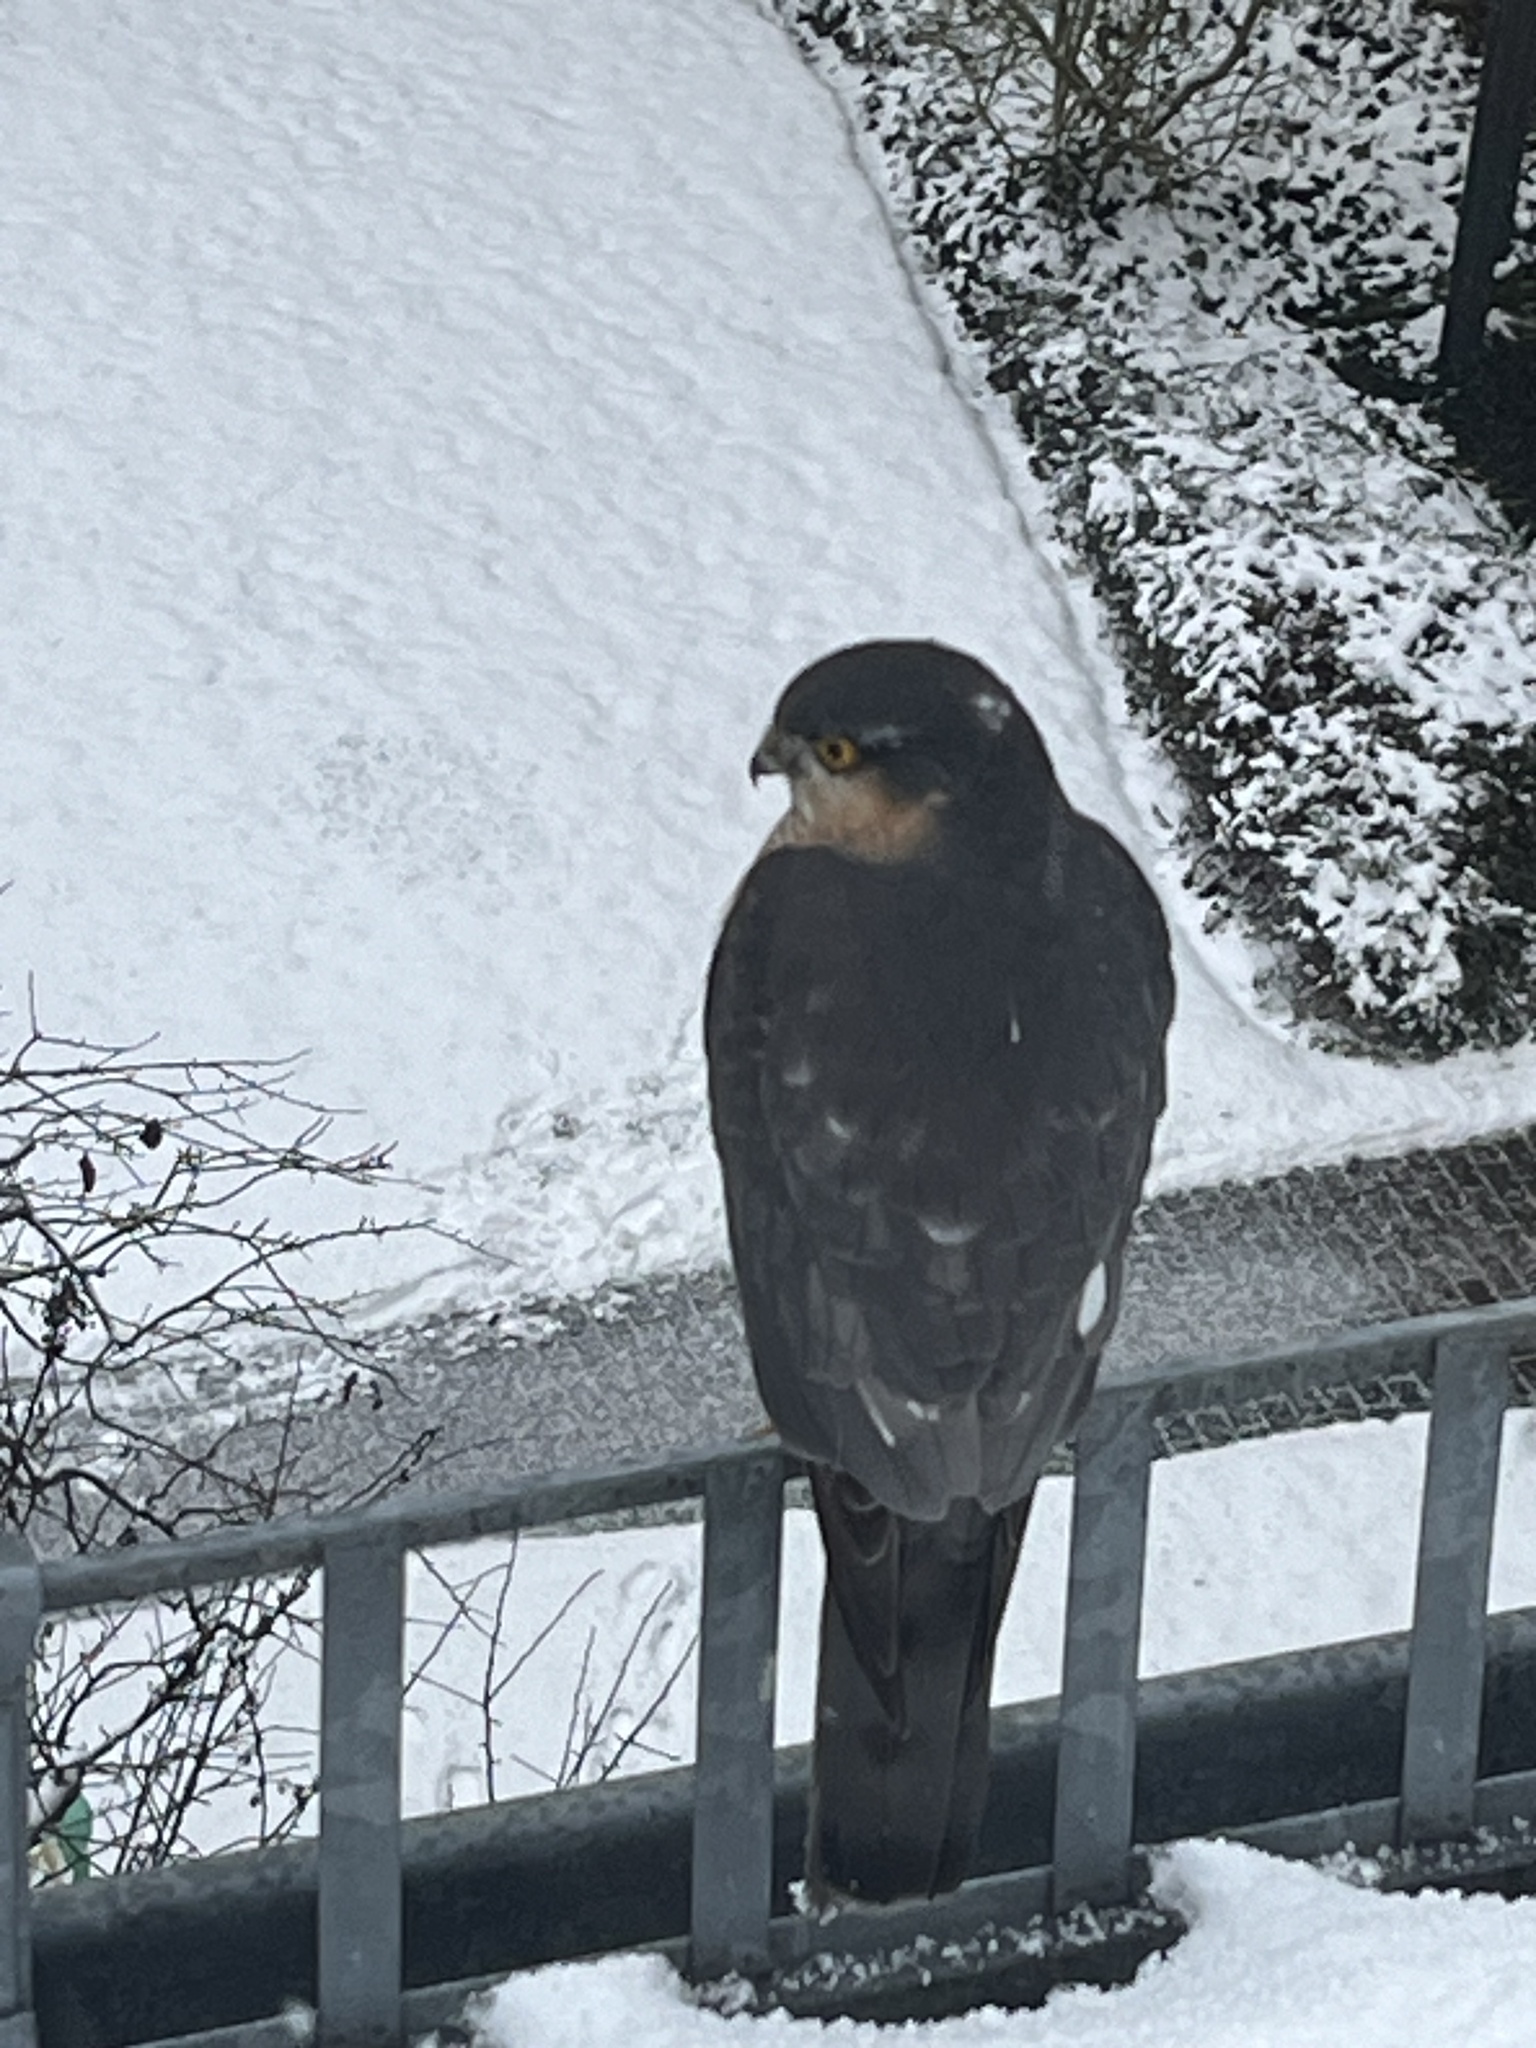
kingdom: Animalia
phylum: Chordata
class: Aves
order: Accipitriformes
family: Accipitridae
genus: Accipiter
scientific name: Accipiter nisus
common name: Eurasian sparrowhawk
